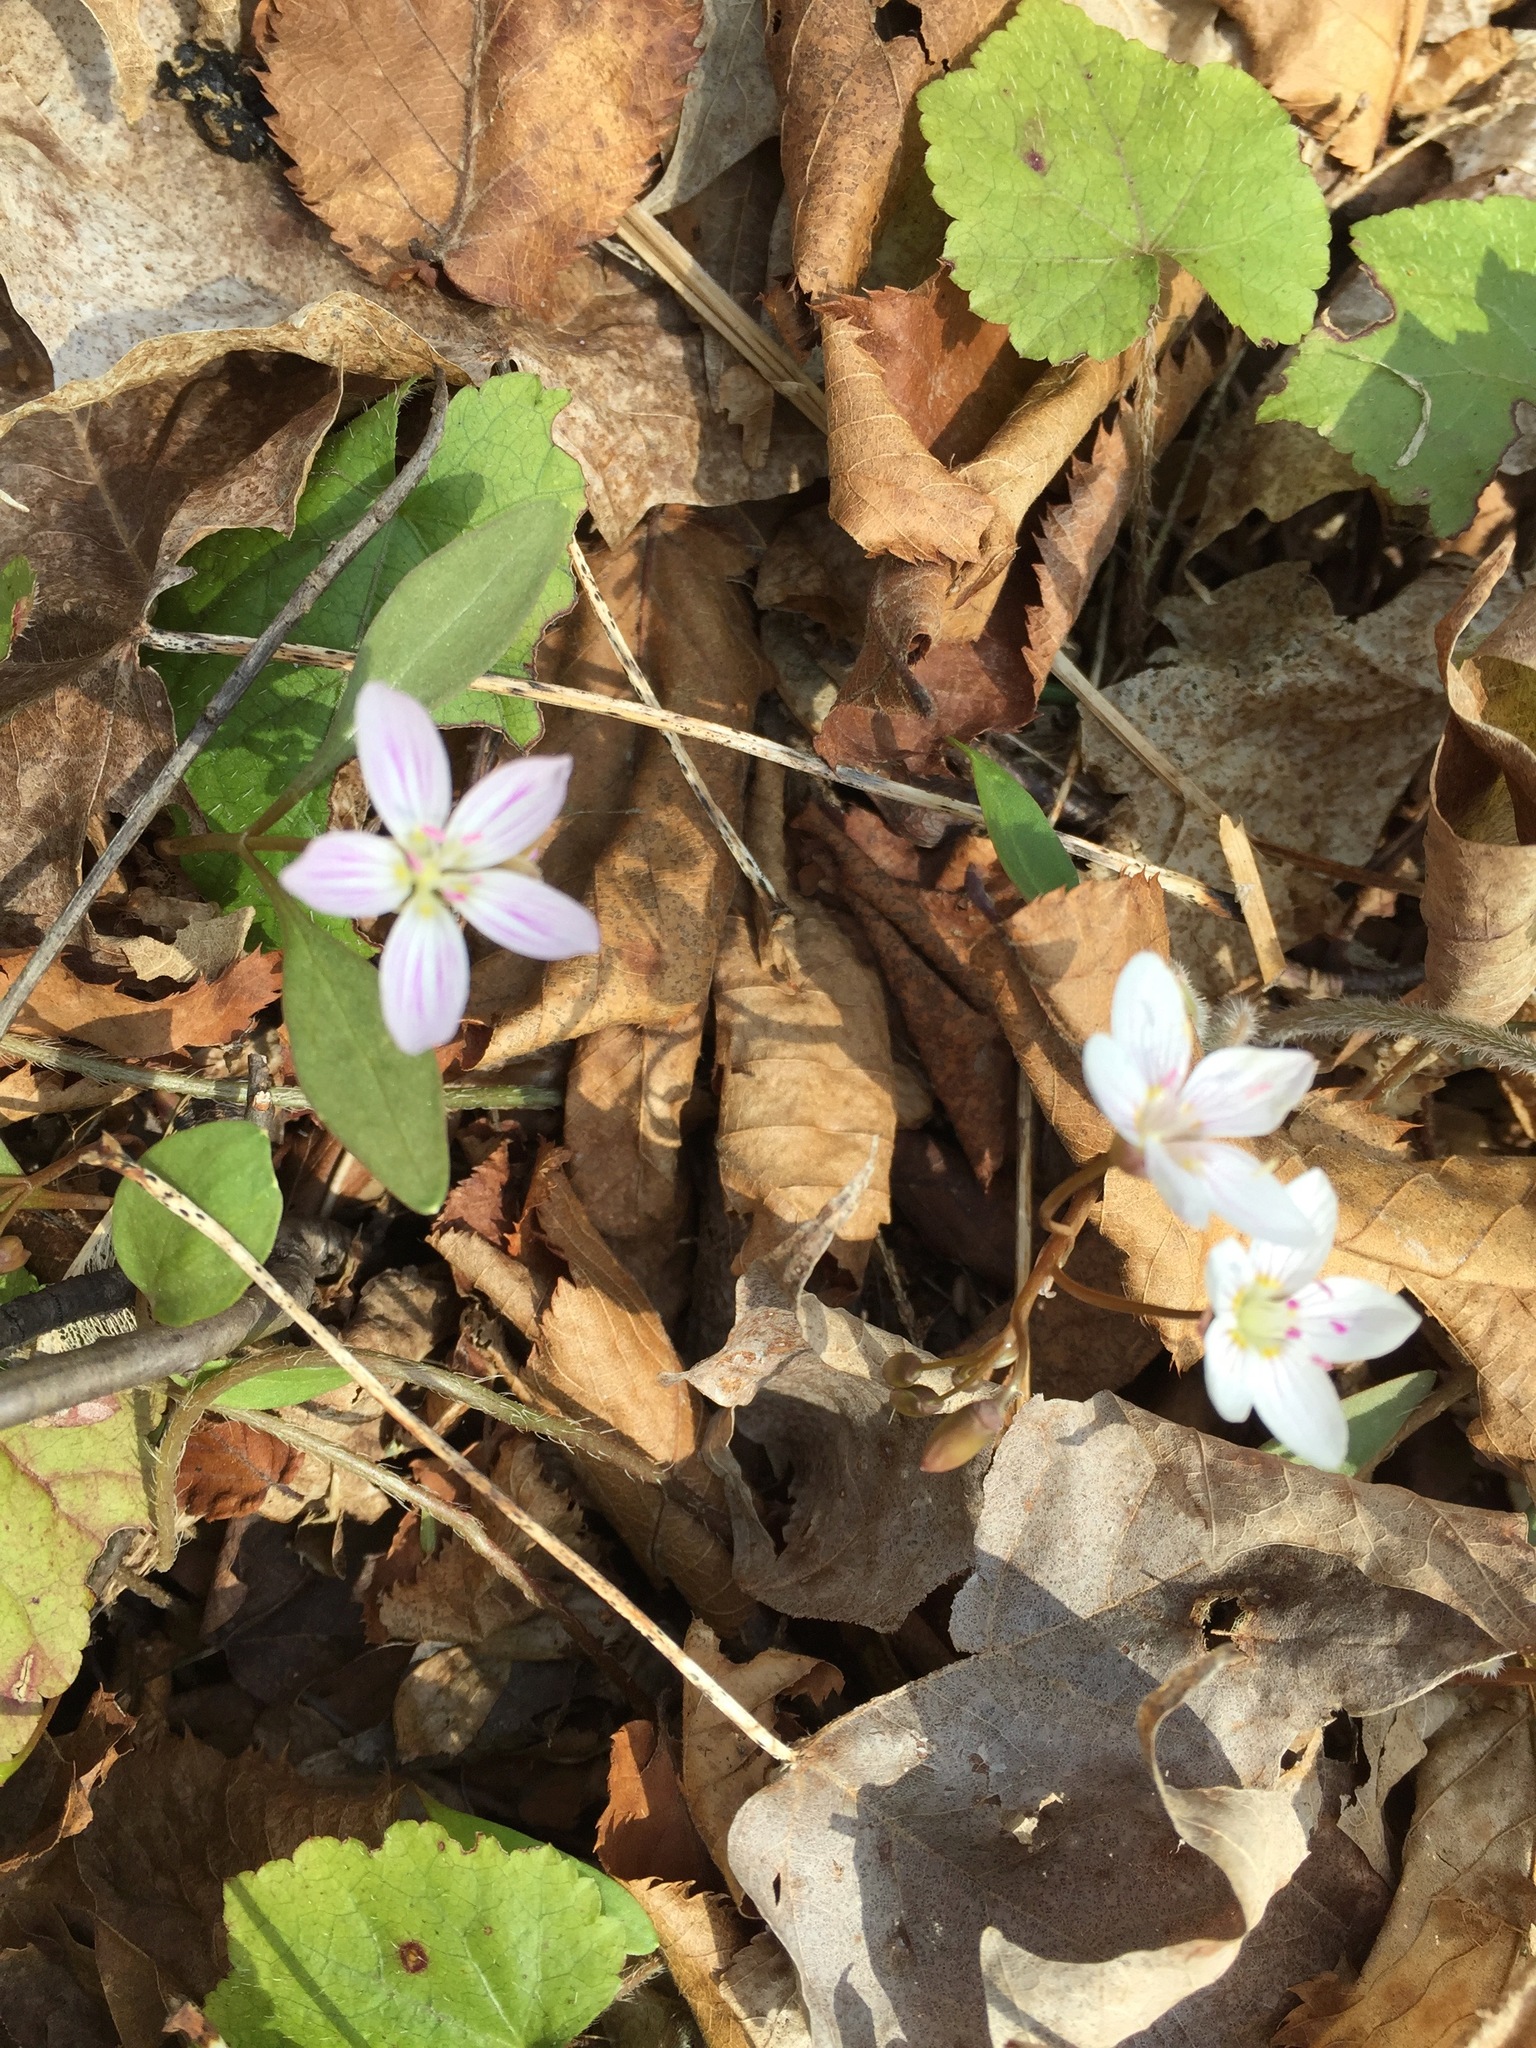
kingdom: Plantae
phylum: Tracheophyta
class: Magnoliopsida
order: Caryophyllales
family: Montiaceae
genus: Claytonia
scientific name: Claytonia caroliniana
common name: Carolina spring beauty
